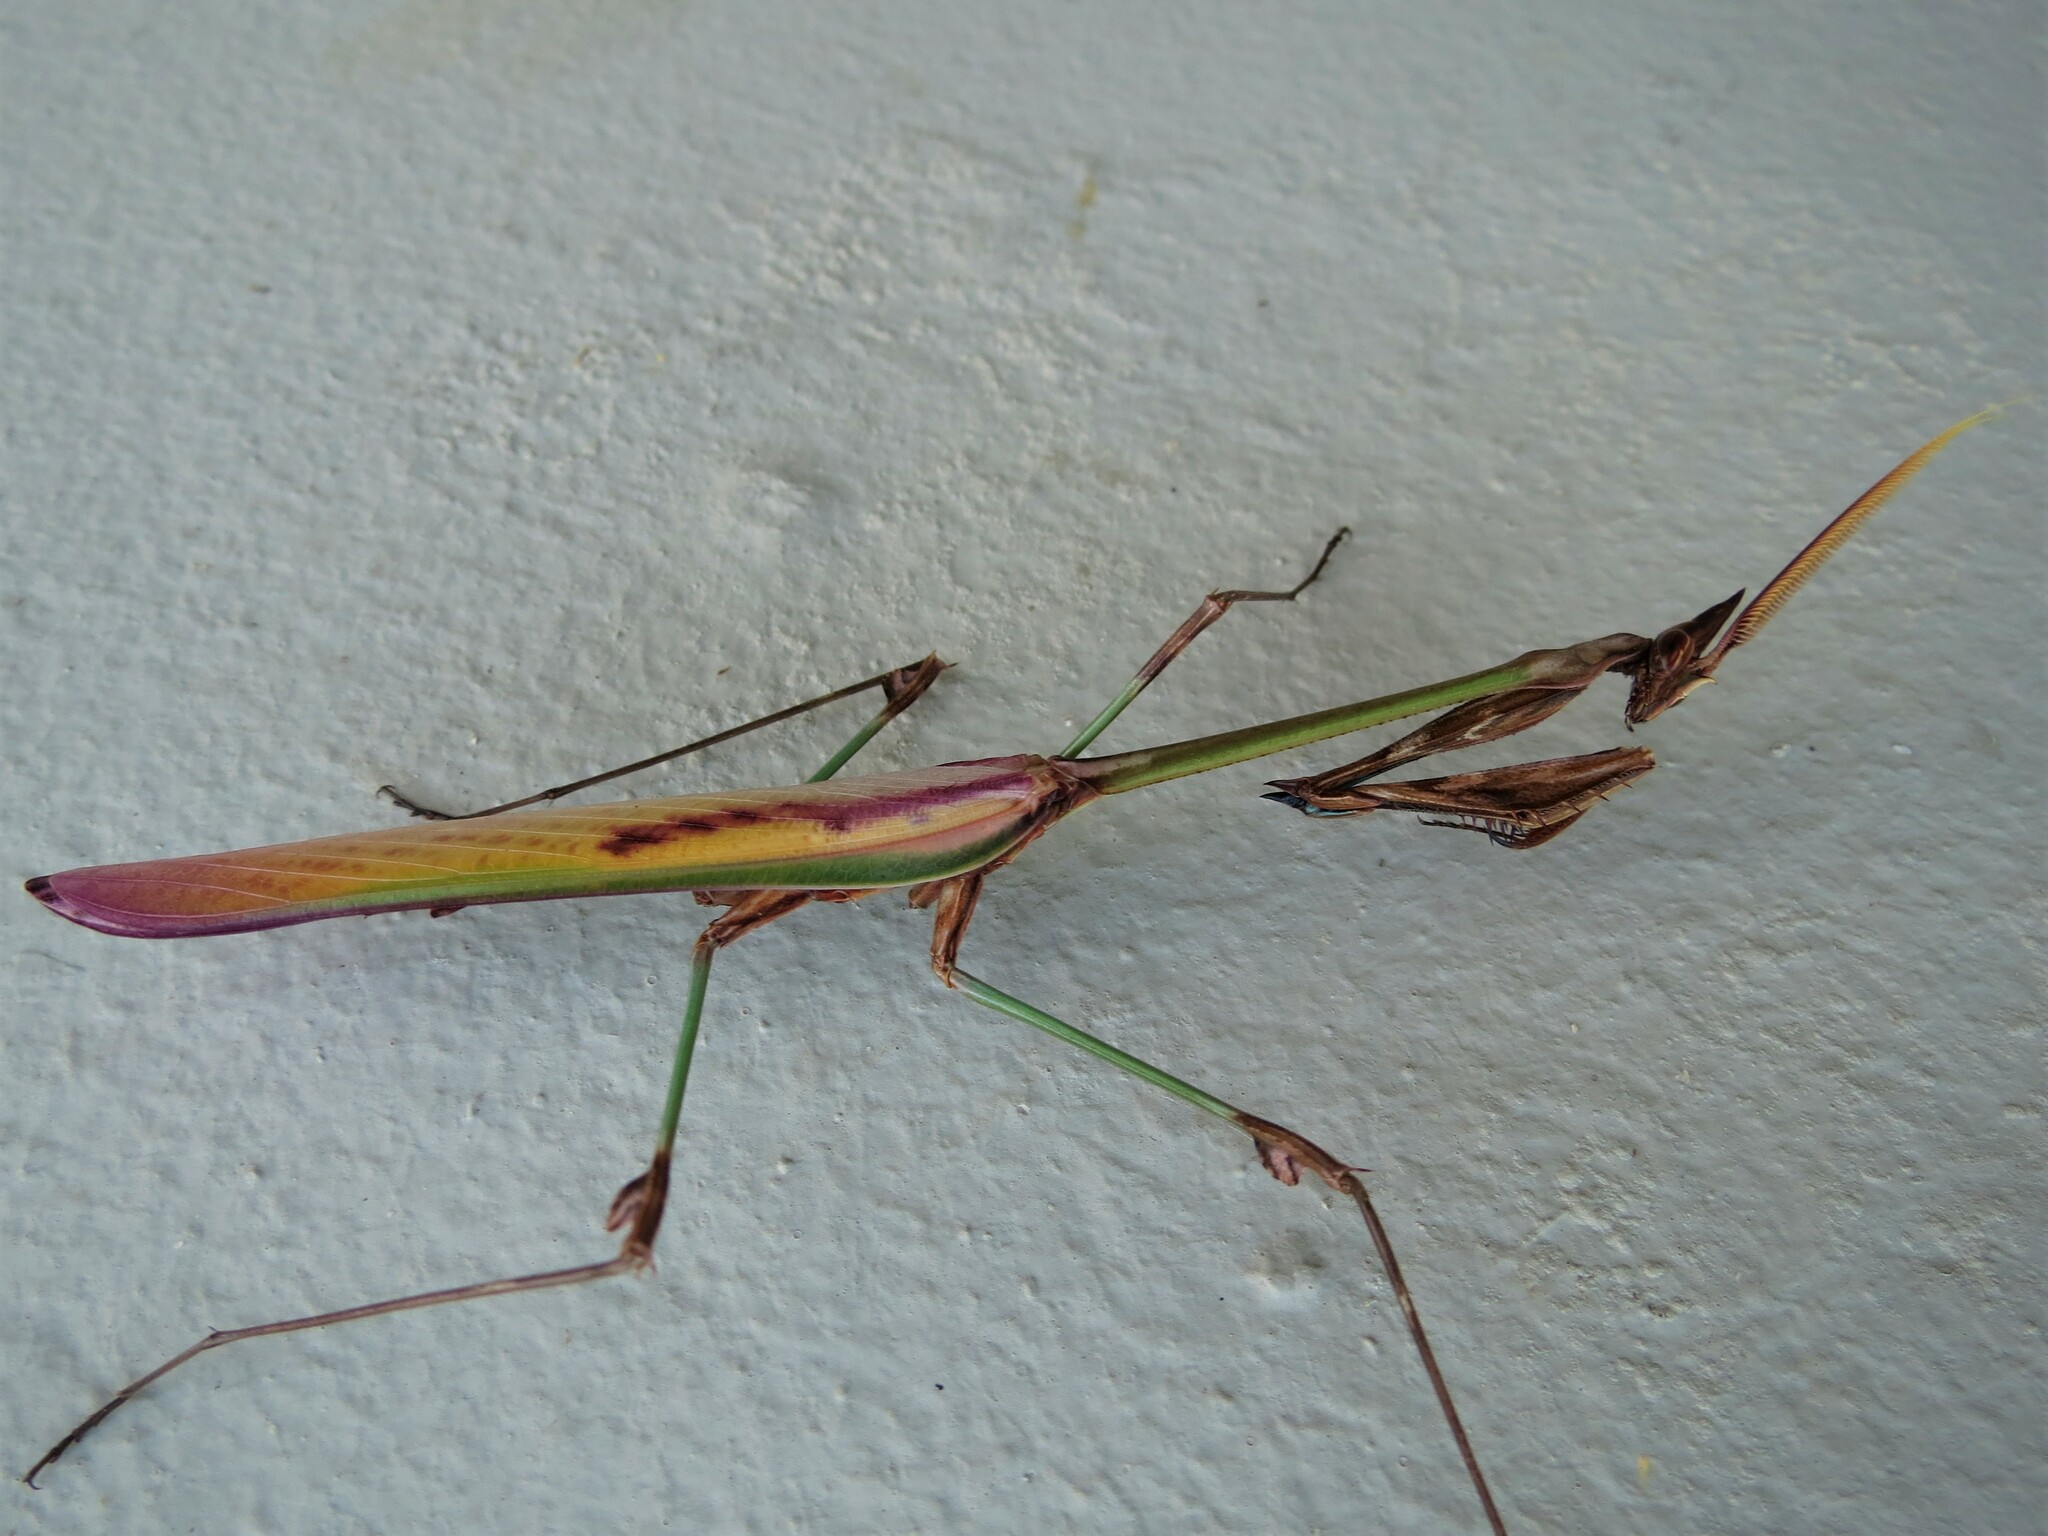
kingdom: Animalia
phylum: Arthropoda
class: Insecta
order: Mantodea
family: Empusidae
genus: Hemiempusa
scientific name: Hemiempusa capensis
